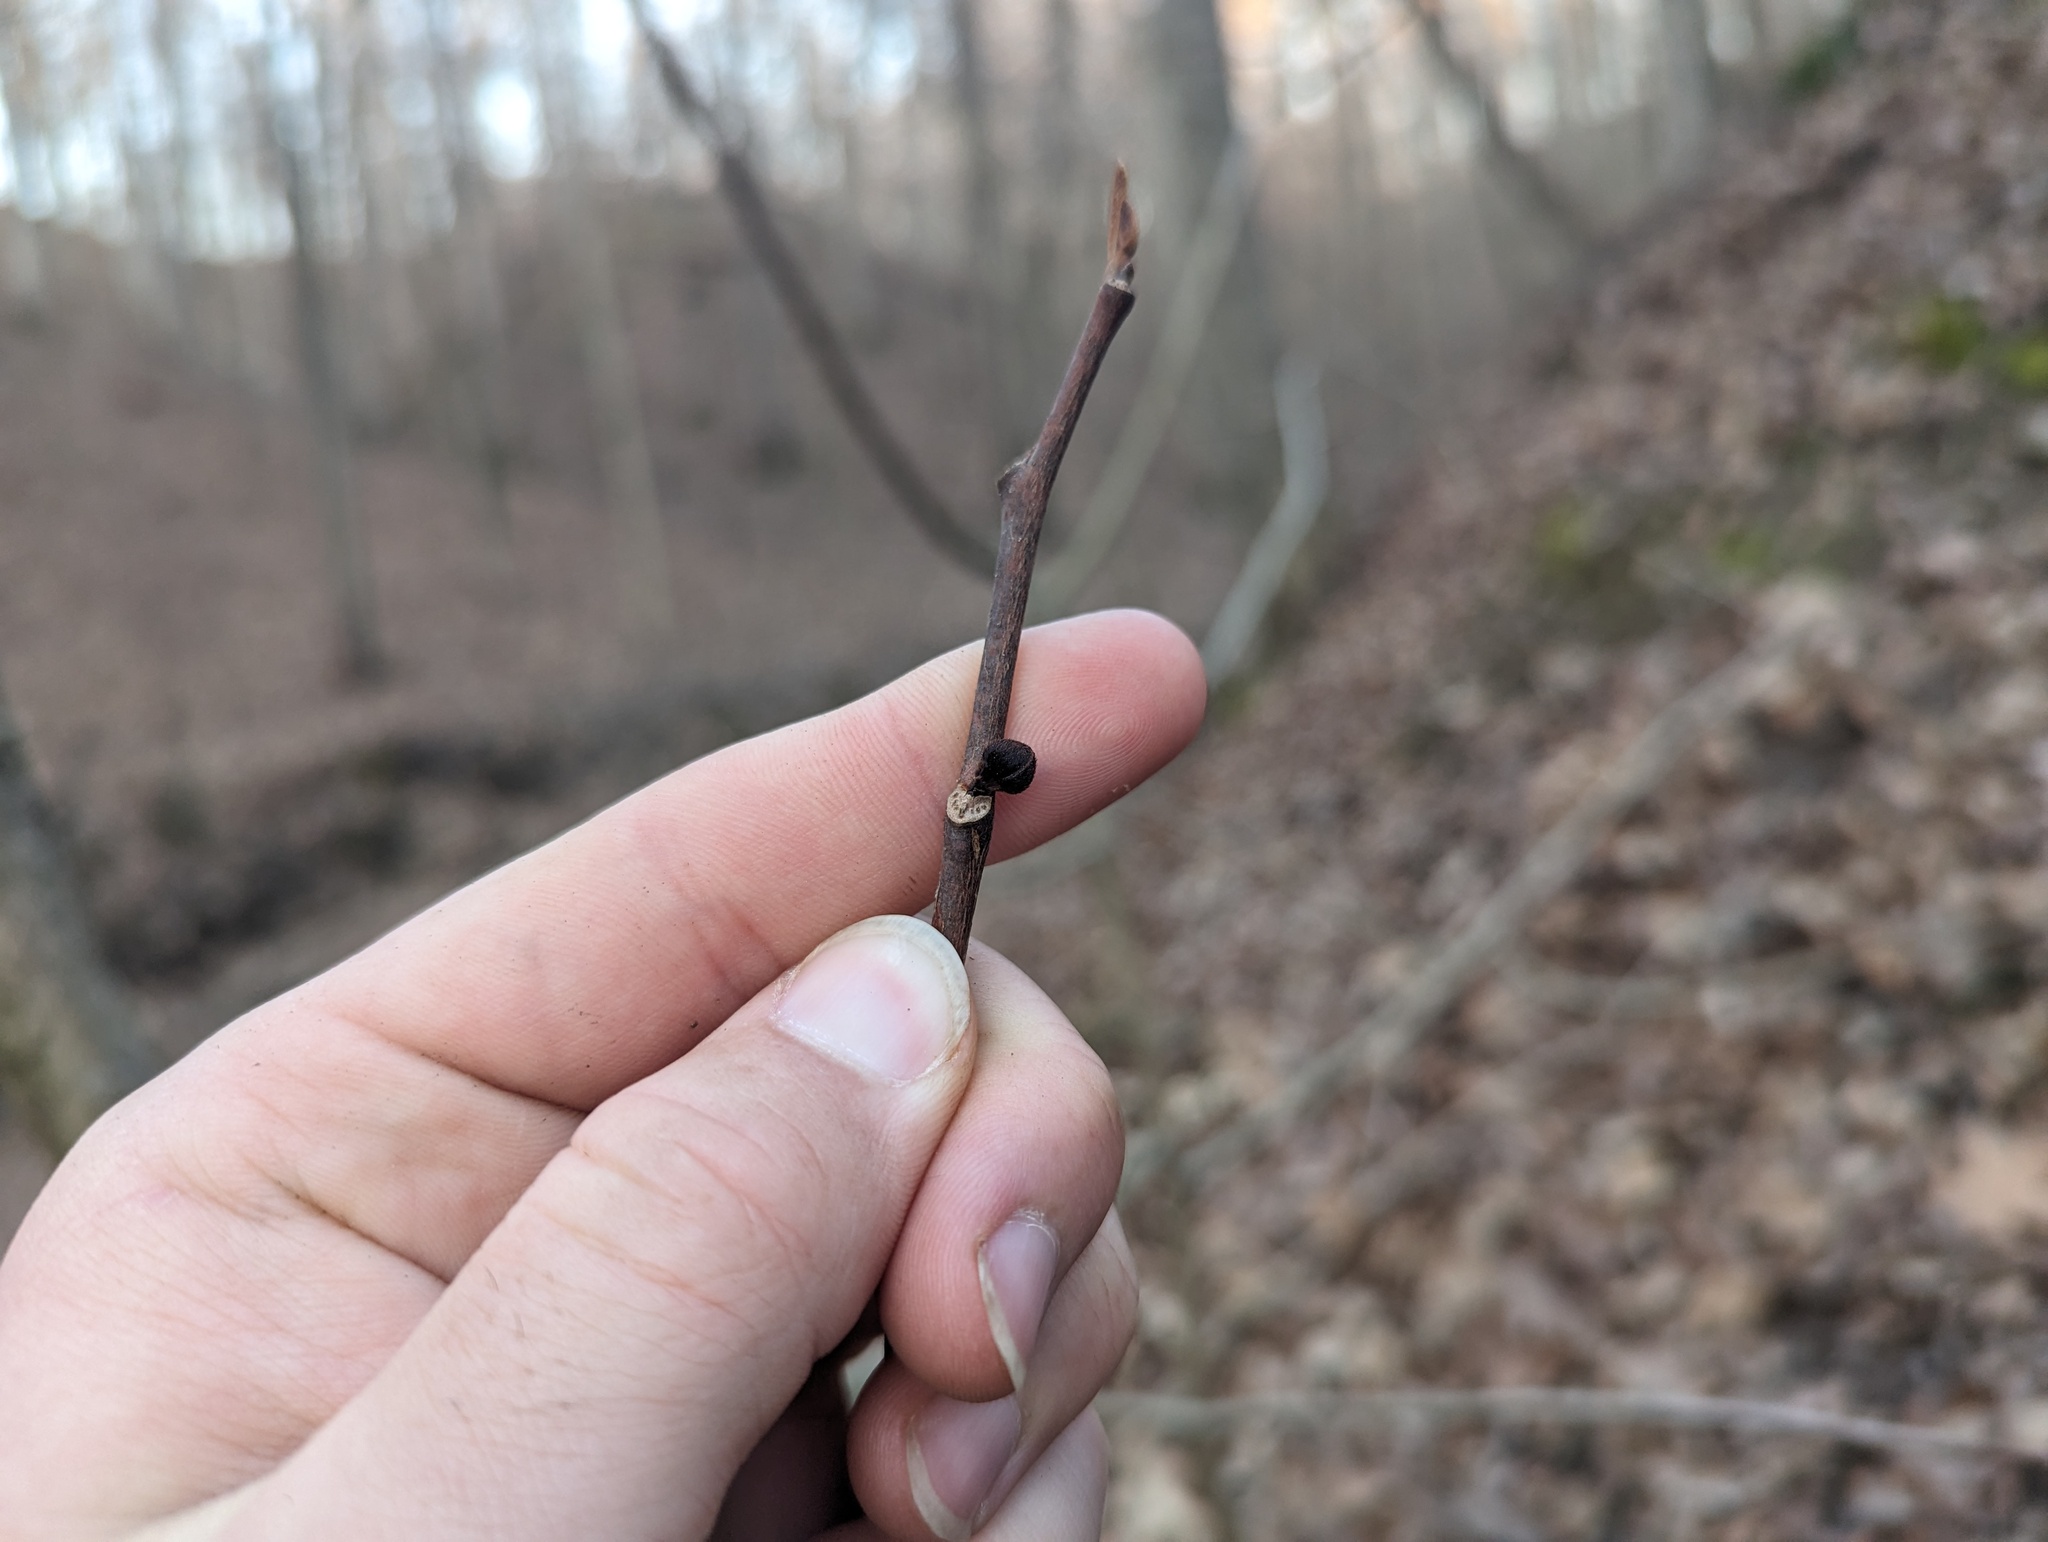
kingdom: Plantae
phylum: Tracheophyta
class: Magnoliopsida
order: Magnoliales
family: Annonaceae
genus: Asimina
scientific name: Asimina triloba
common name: Dog-banana
